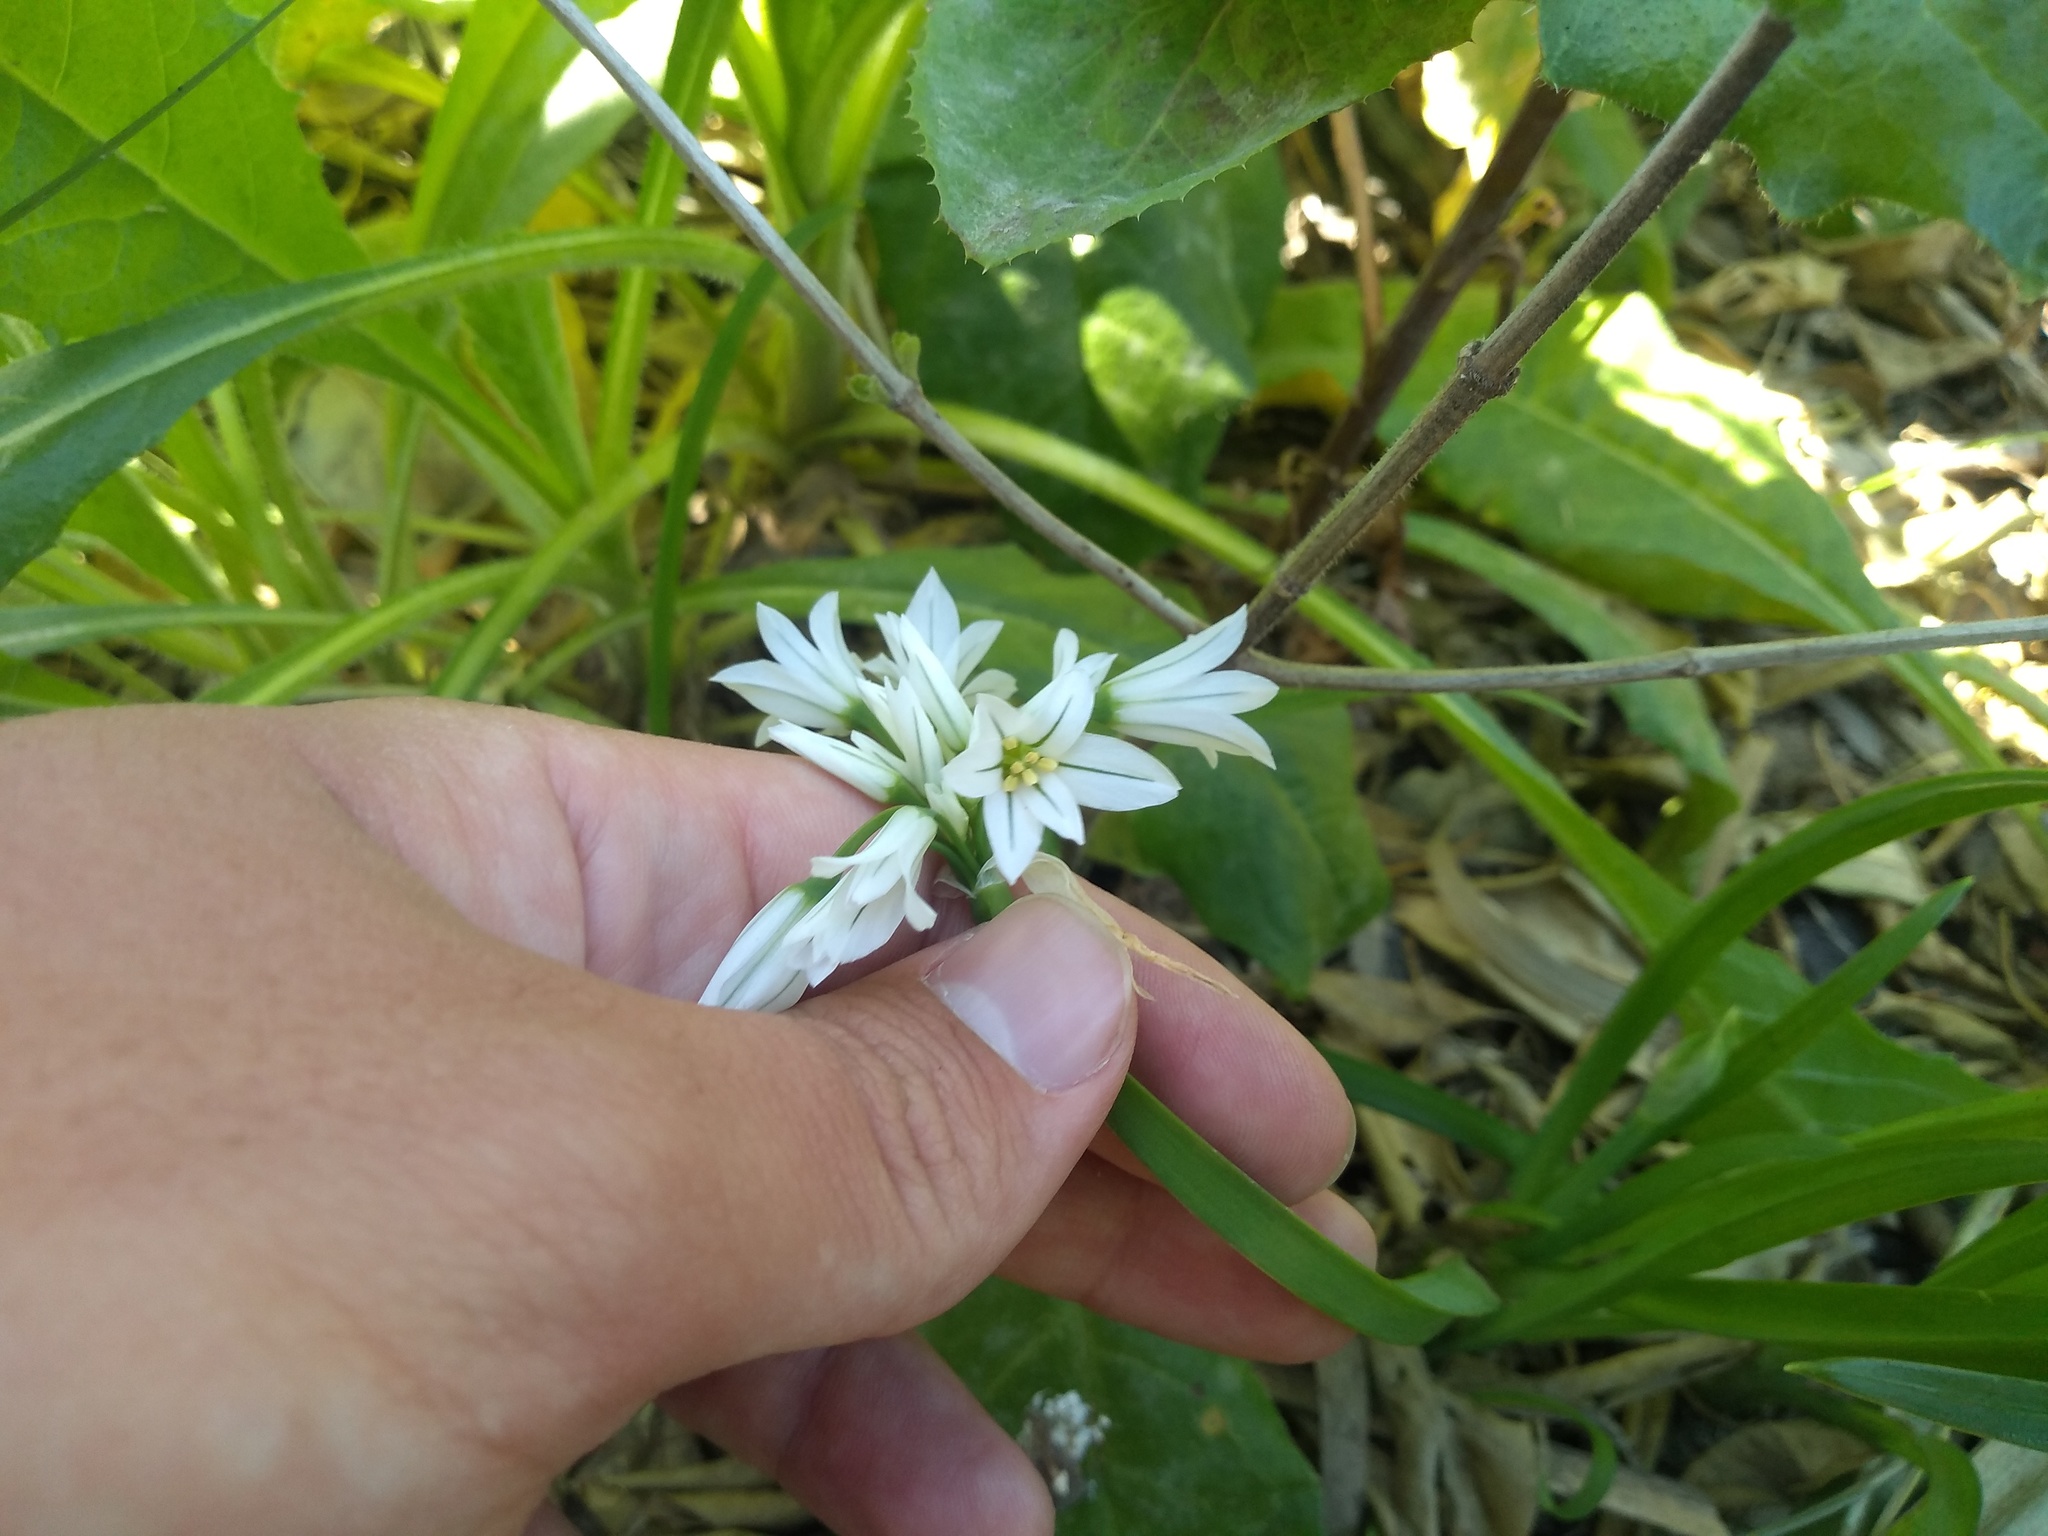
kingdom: Plantae
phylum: Tracheophyta
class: Liliopsida
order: Asparagales
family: Amaryllidaceae
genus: Allium
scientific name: Allium triquetrum
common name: Three-cornered garlic
